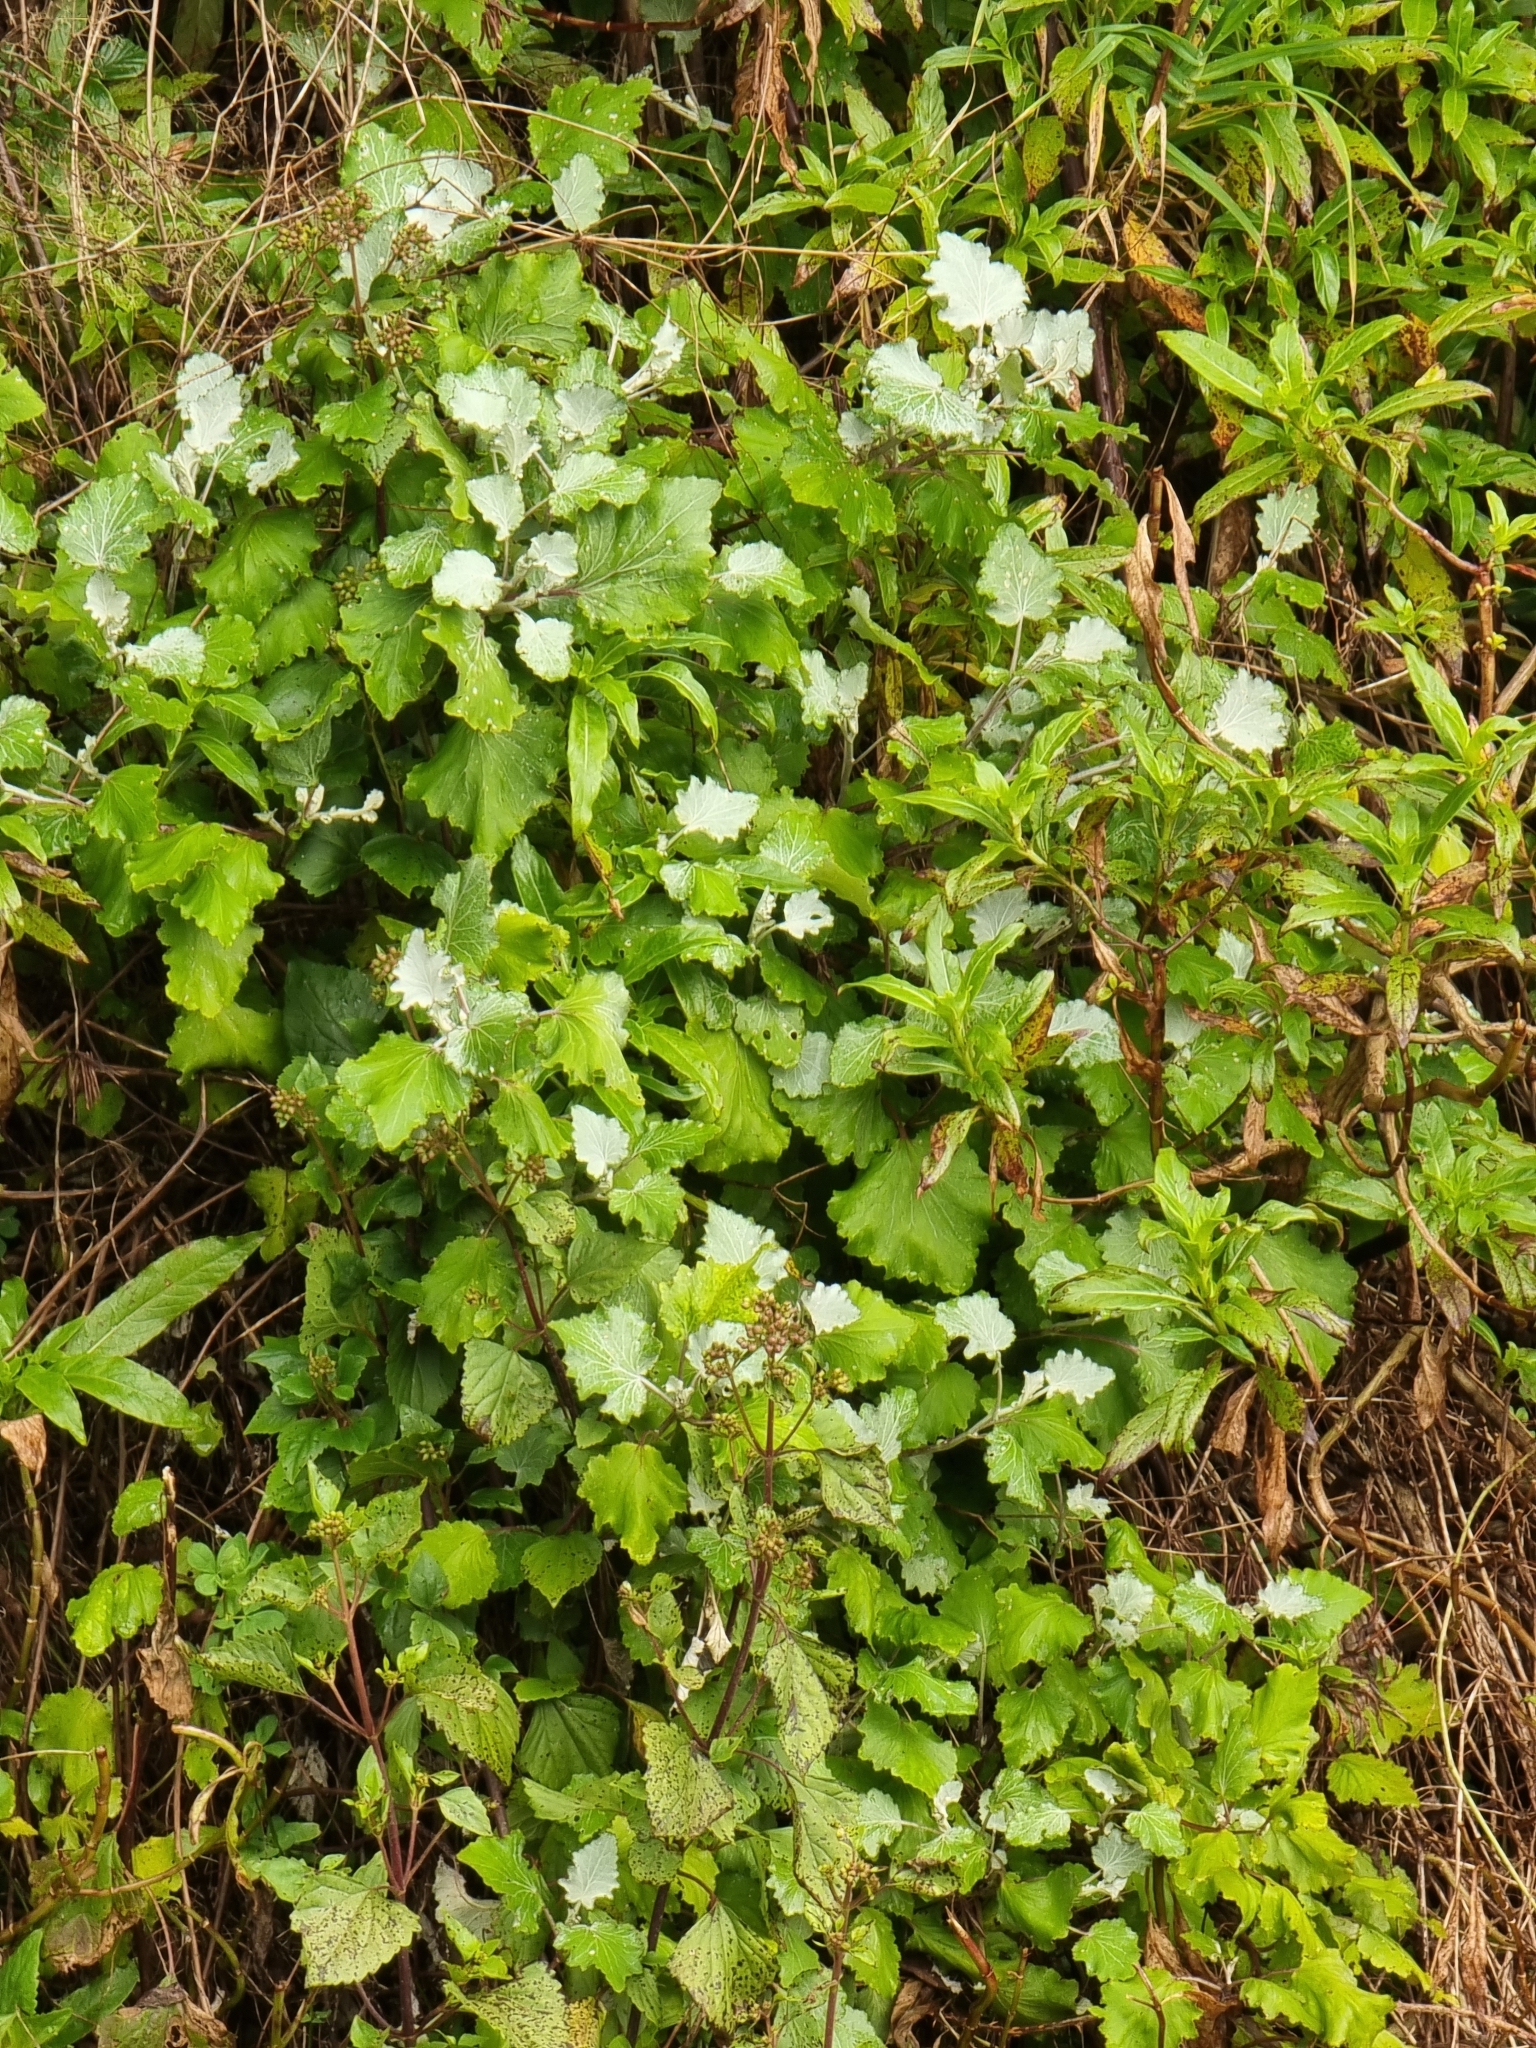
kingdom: Plantae
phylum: Tracheophyta
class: Magnoliopsida
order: Asterales
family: Asteraceae
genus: Pericallis
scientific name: Pericallis aurita
